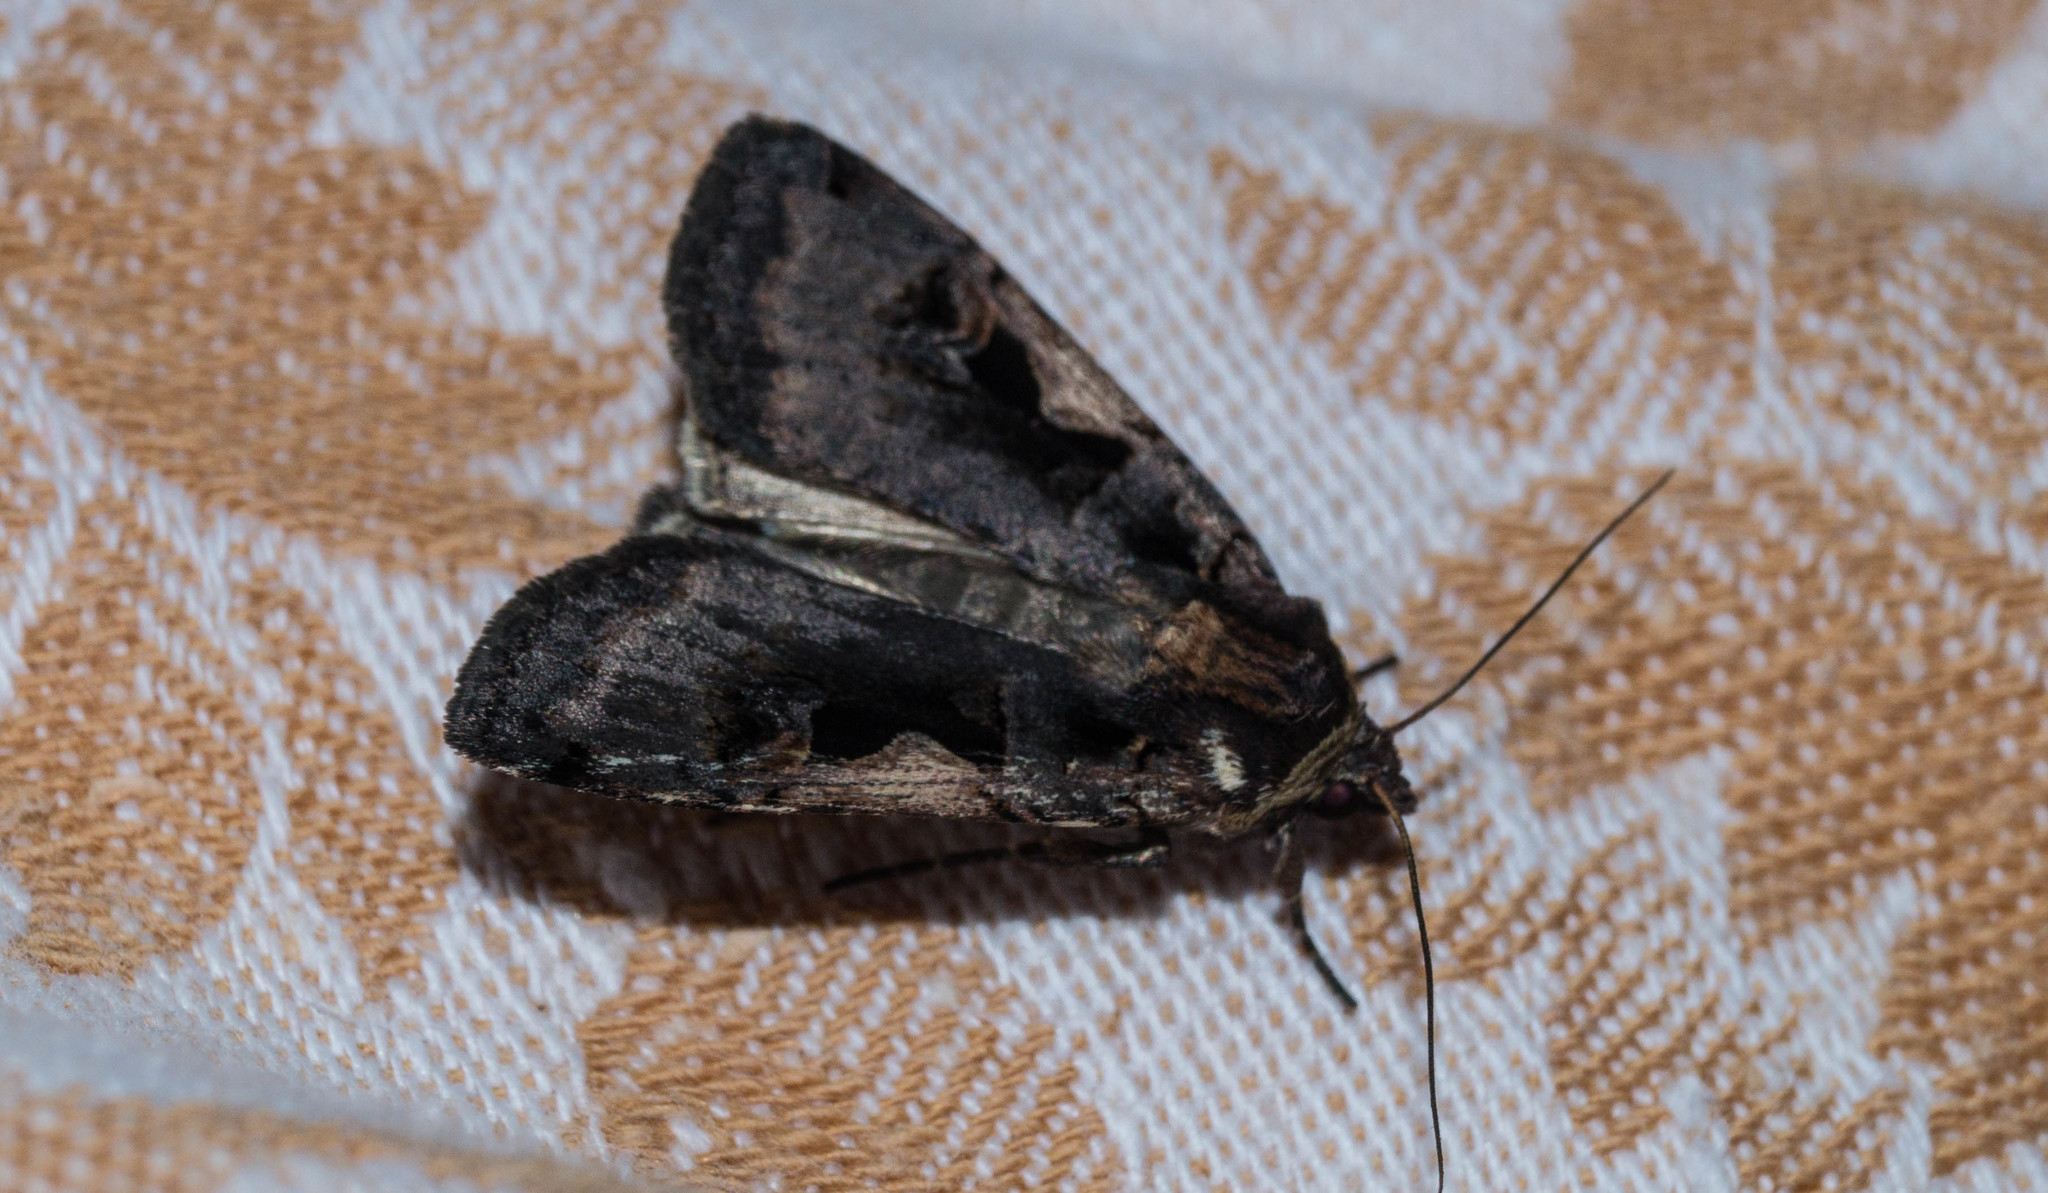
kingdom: Animalia
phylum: Arthropoda
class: Insecta
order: Lepidoptera
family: Noctuidae
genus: Xestia
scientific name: Xestia c-nigrum
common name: Setaceous hebrew character
